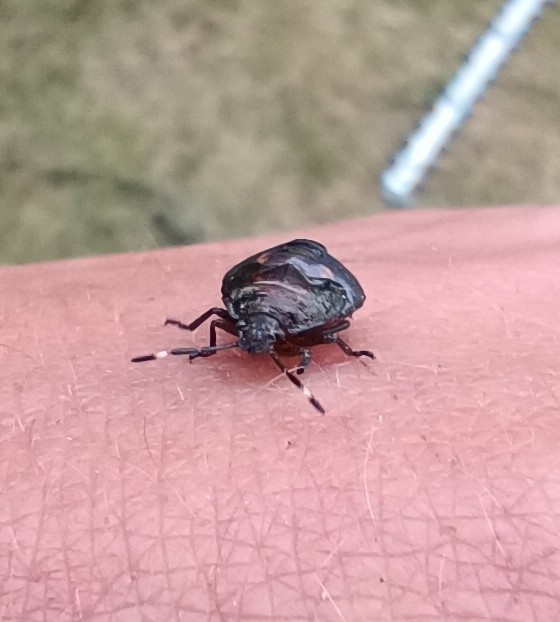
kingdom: Animalia
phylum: Arthropoda
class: Insecta
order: Hemiptera
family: Pentatomidae
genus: Monteithiella
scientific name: Monteithiella
